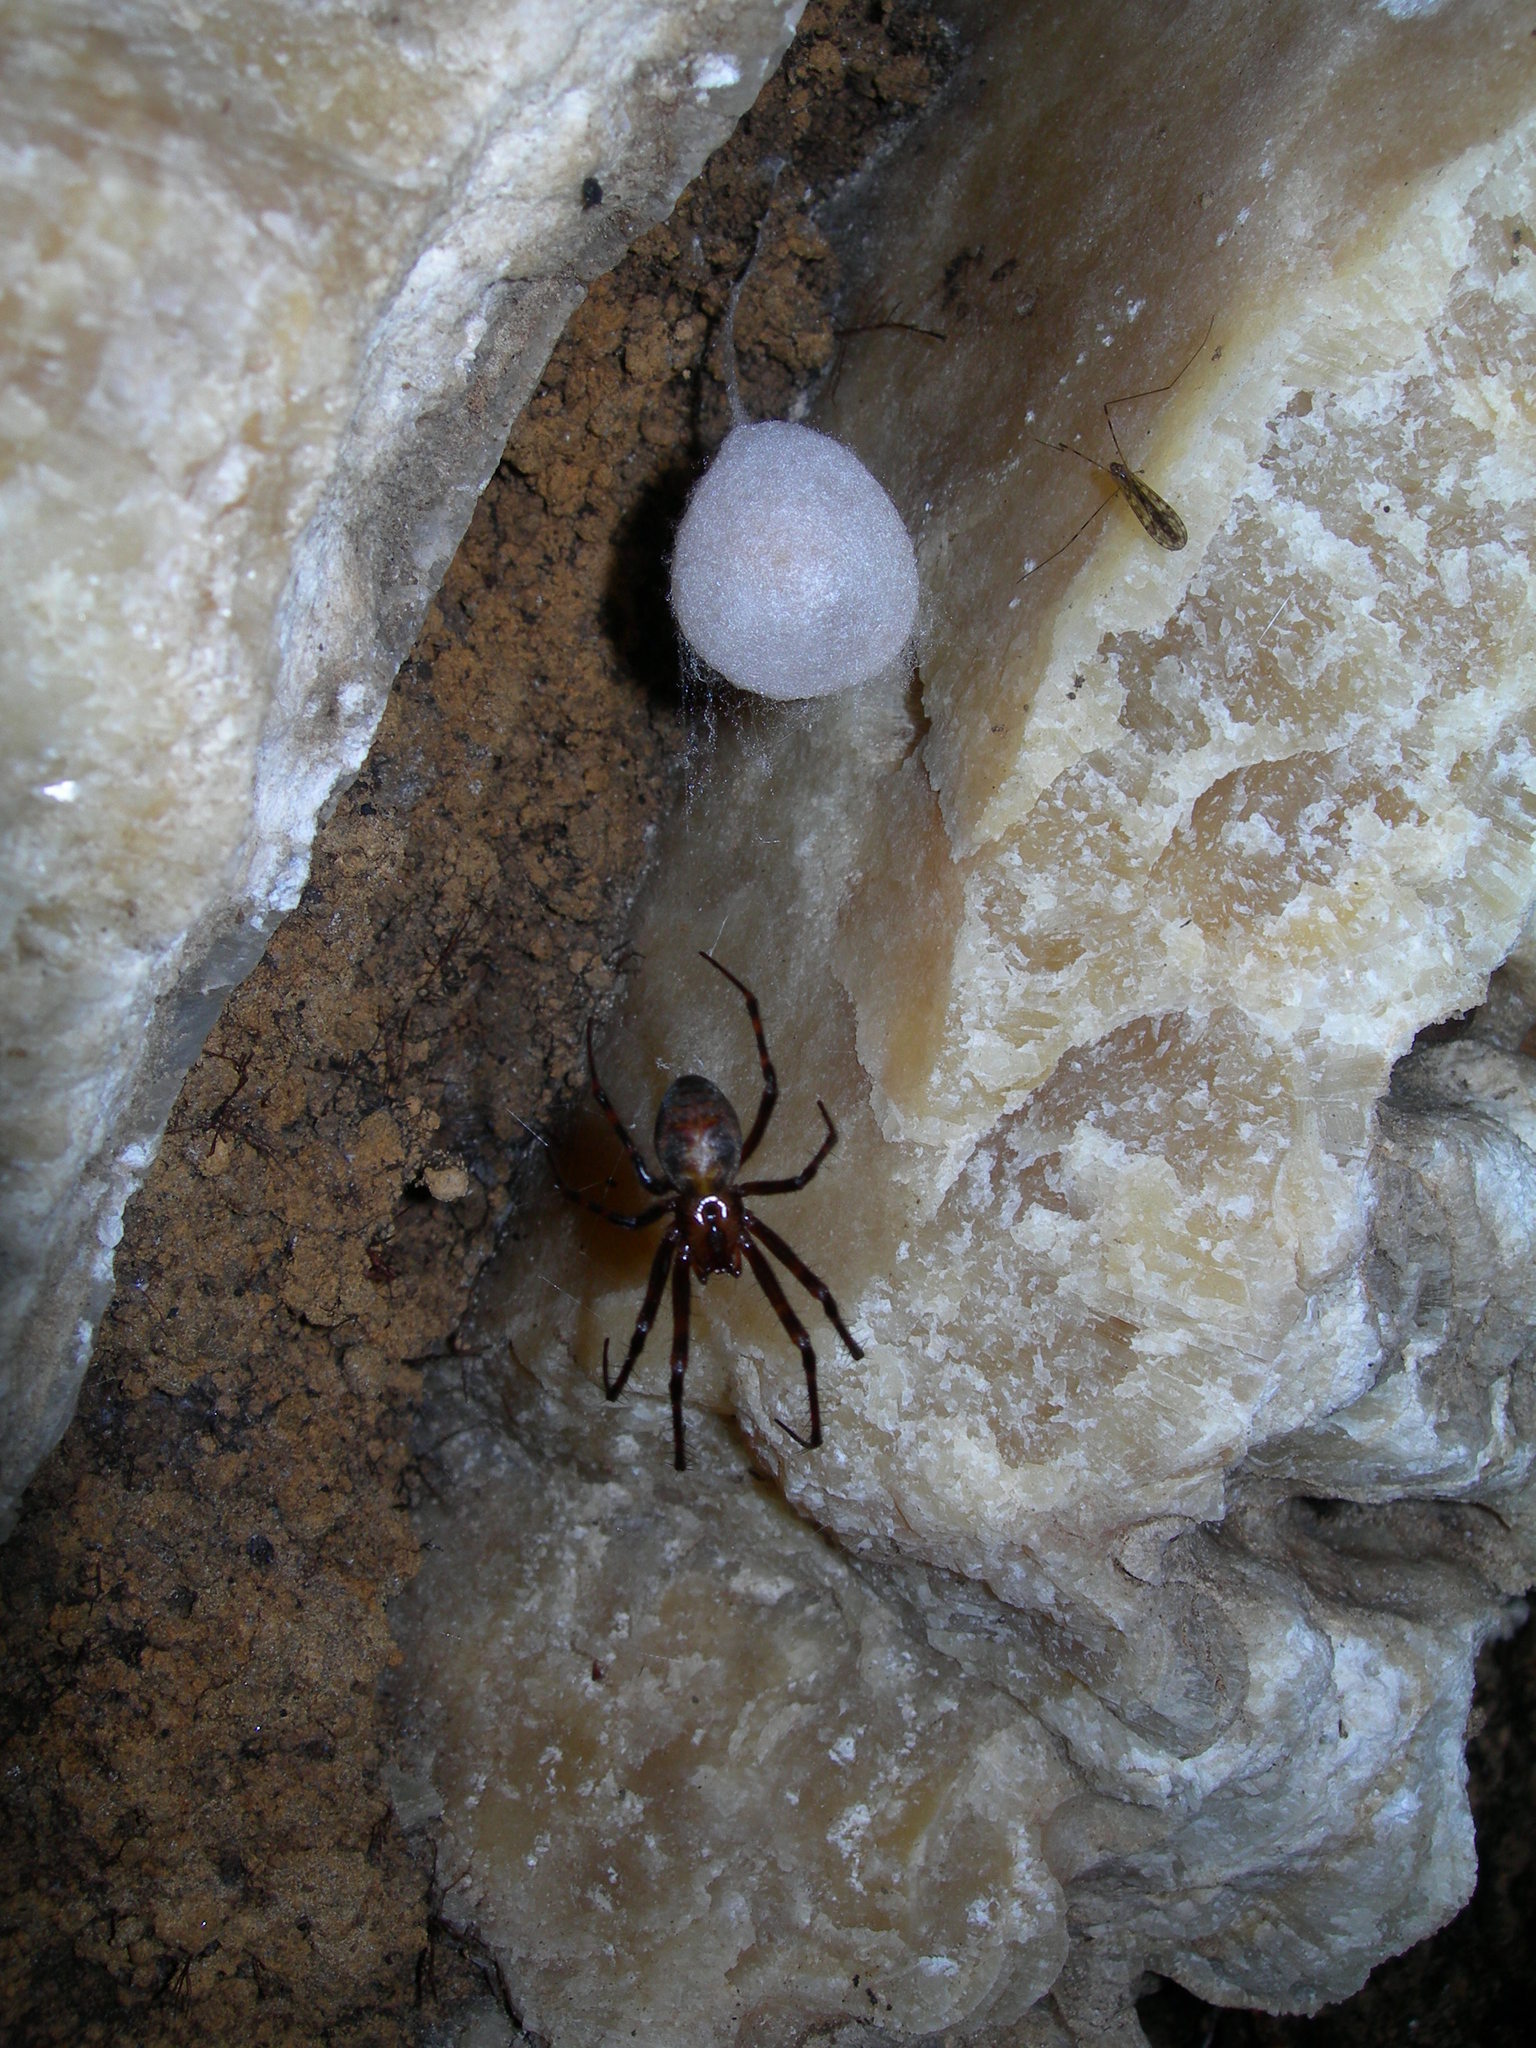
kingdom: Animalia
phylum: Arthropoda
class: Arachnida
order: Araneae
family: Tetragnathidae
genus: Meta
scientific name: Meta menardi
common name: Cave spider
